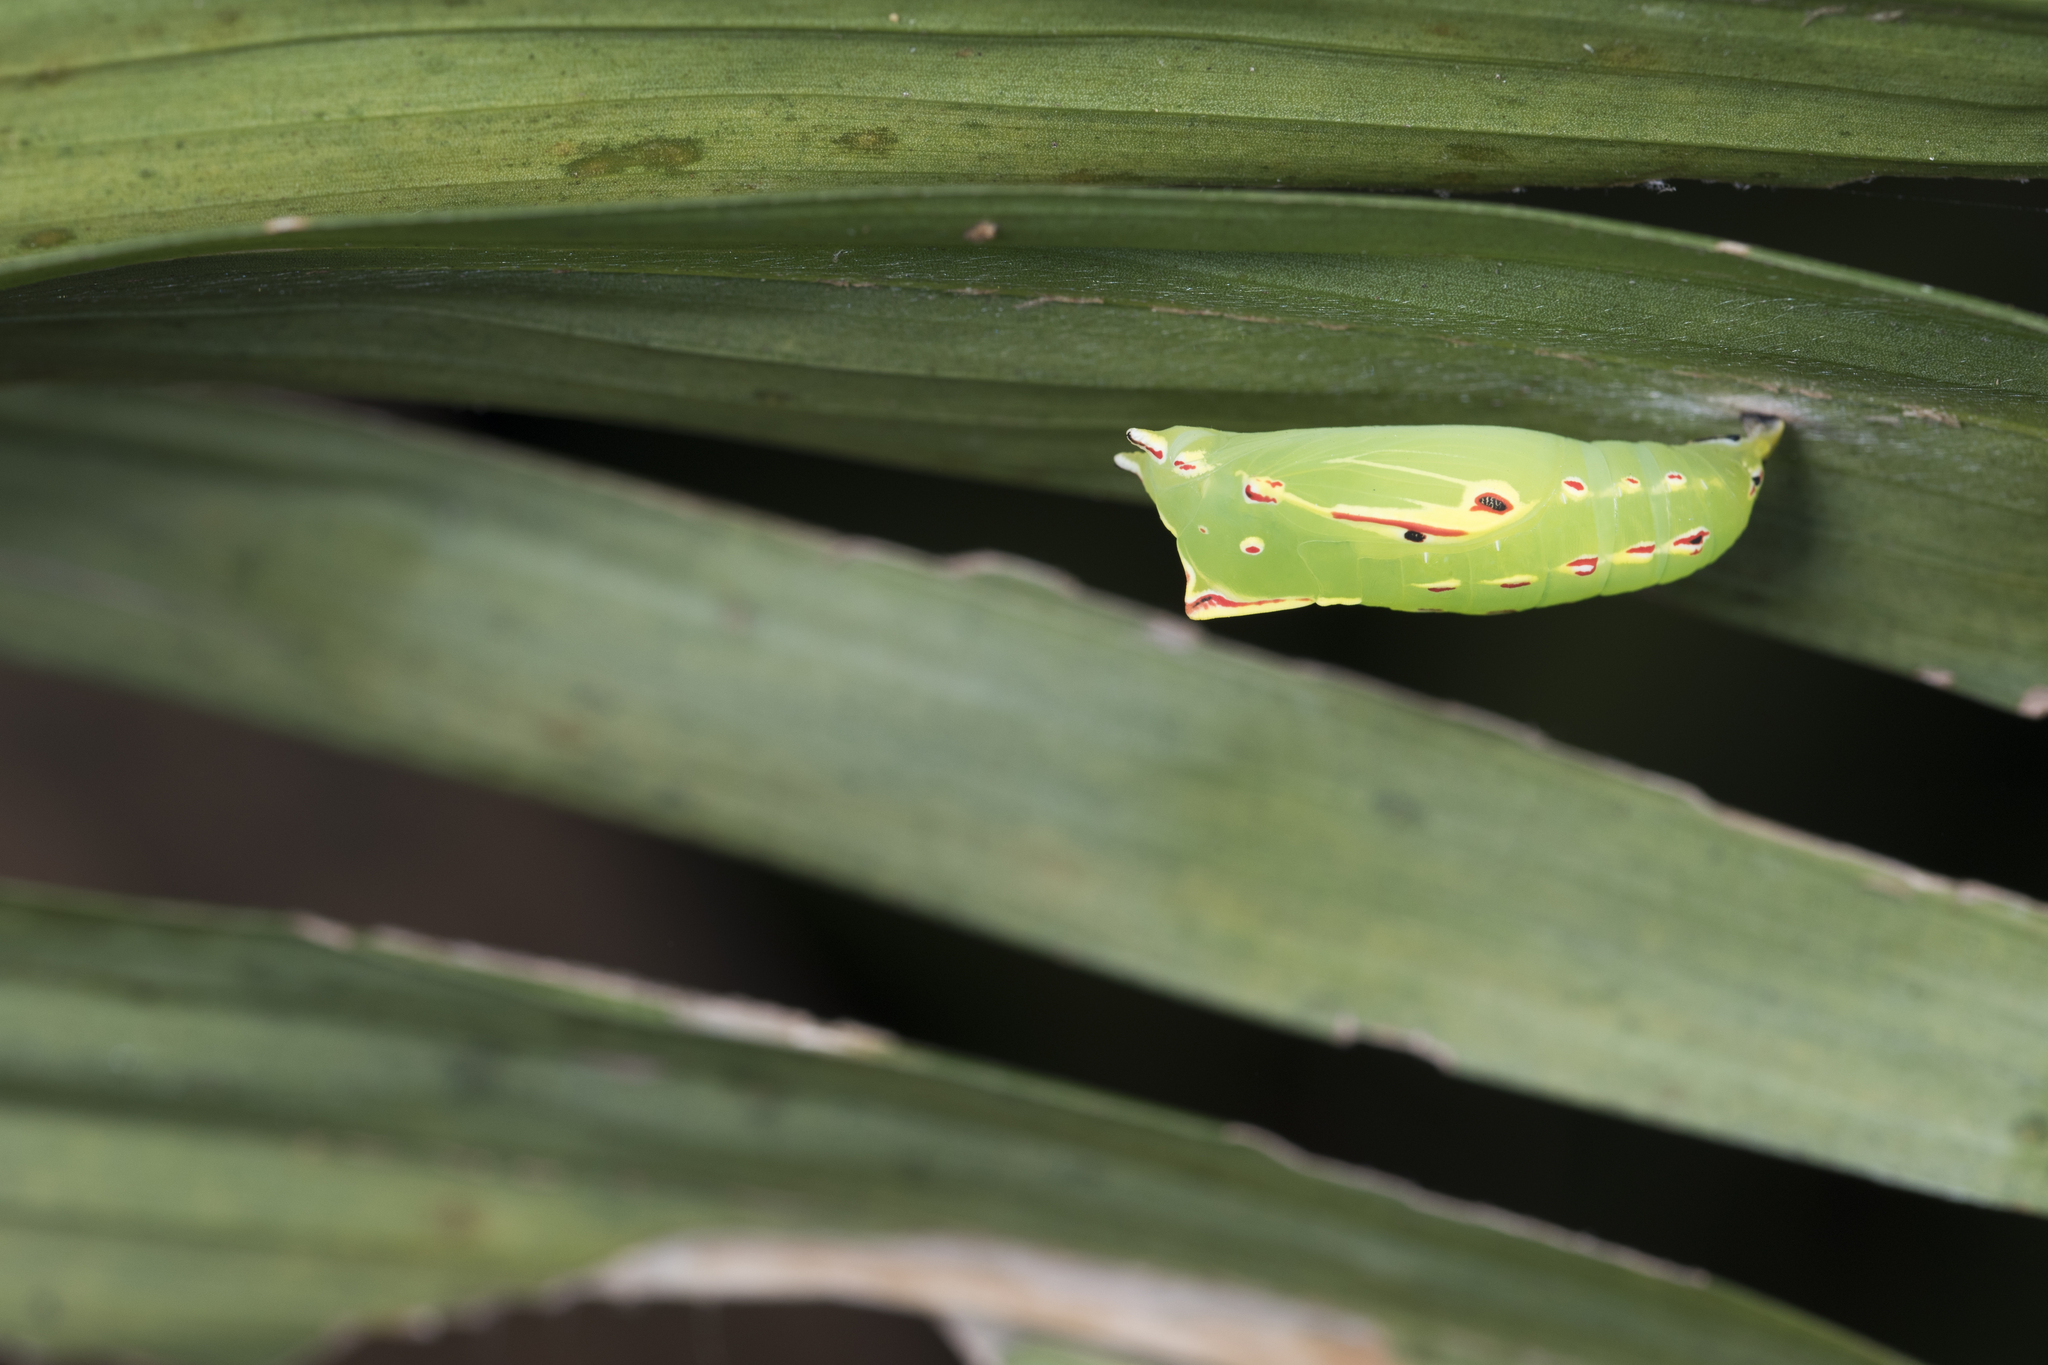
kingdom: Animalia
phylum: Arthropoda
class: Insecta
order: Lepidoptera
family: Nymphalidae
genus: Elymnias
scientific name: Elymnias hypermnestra
